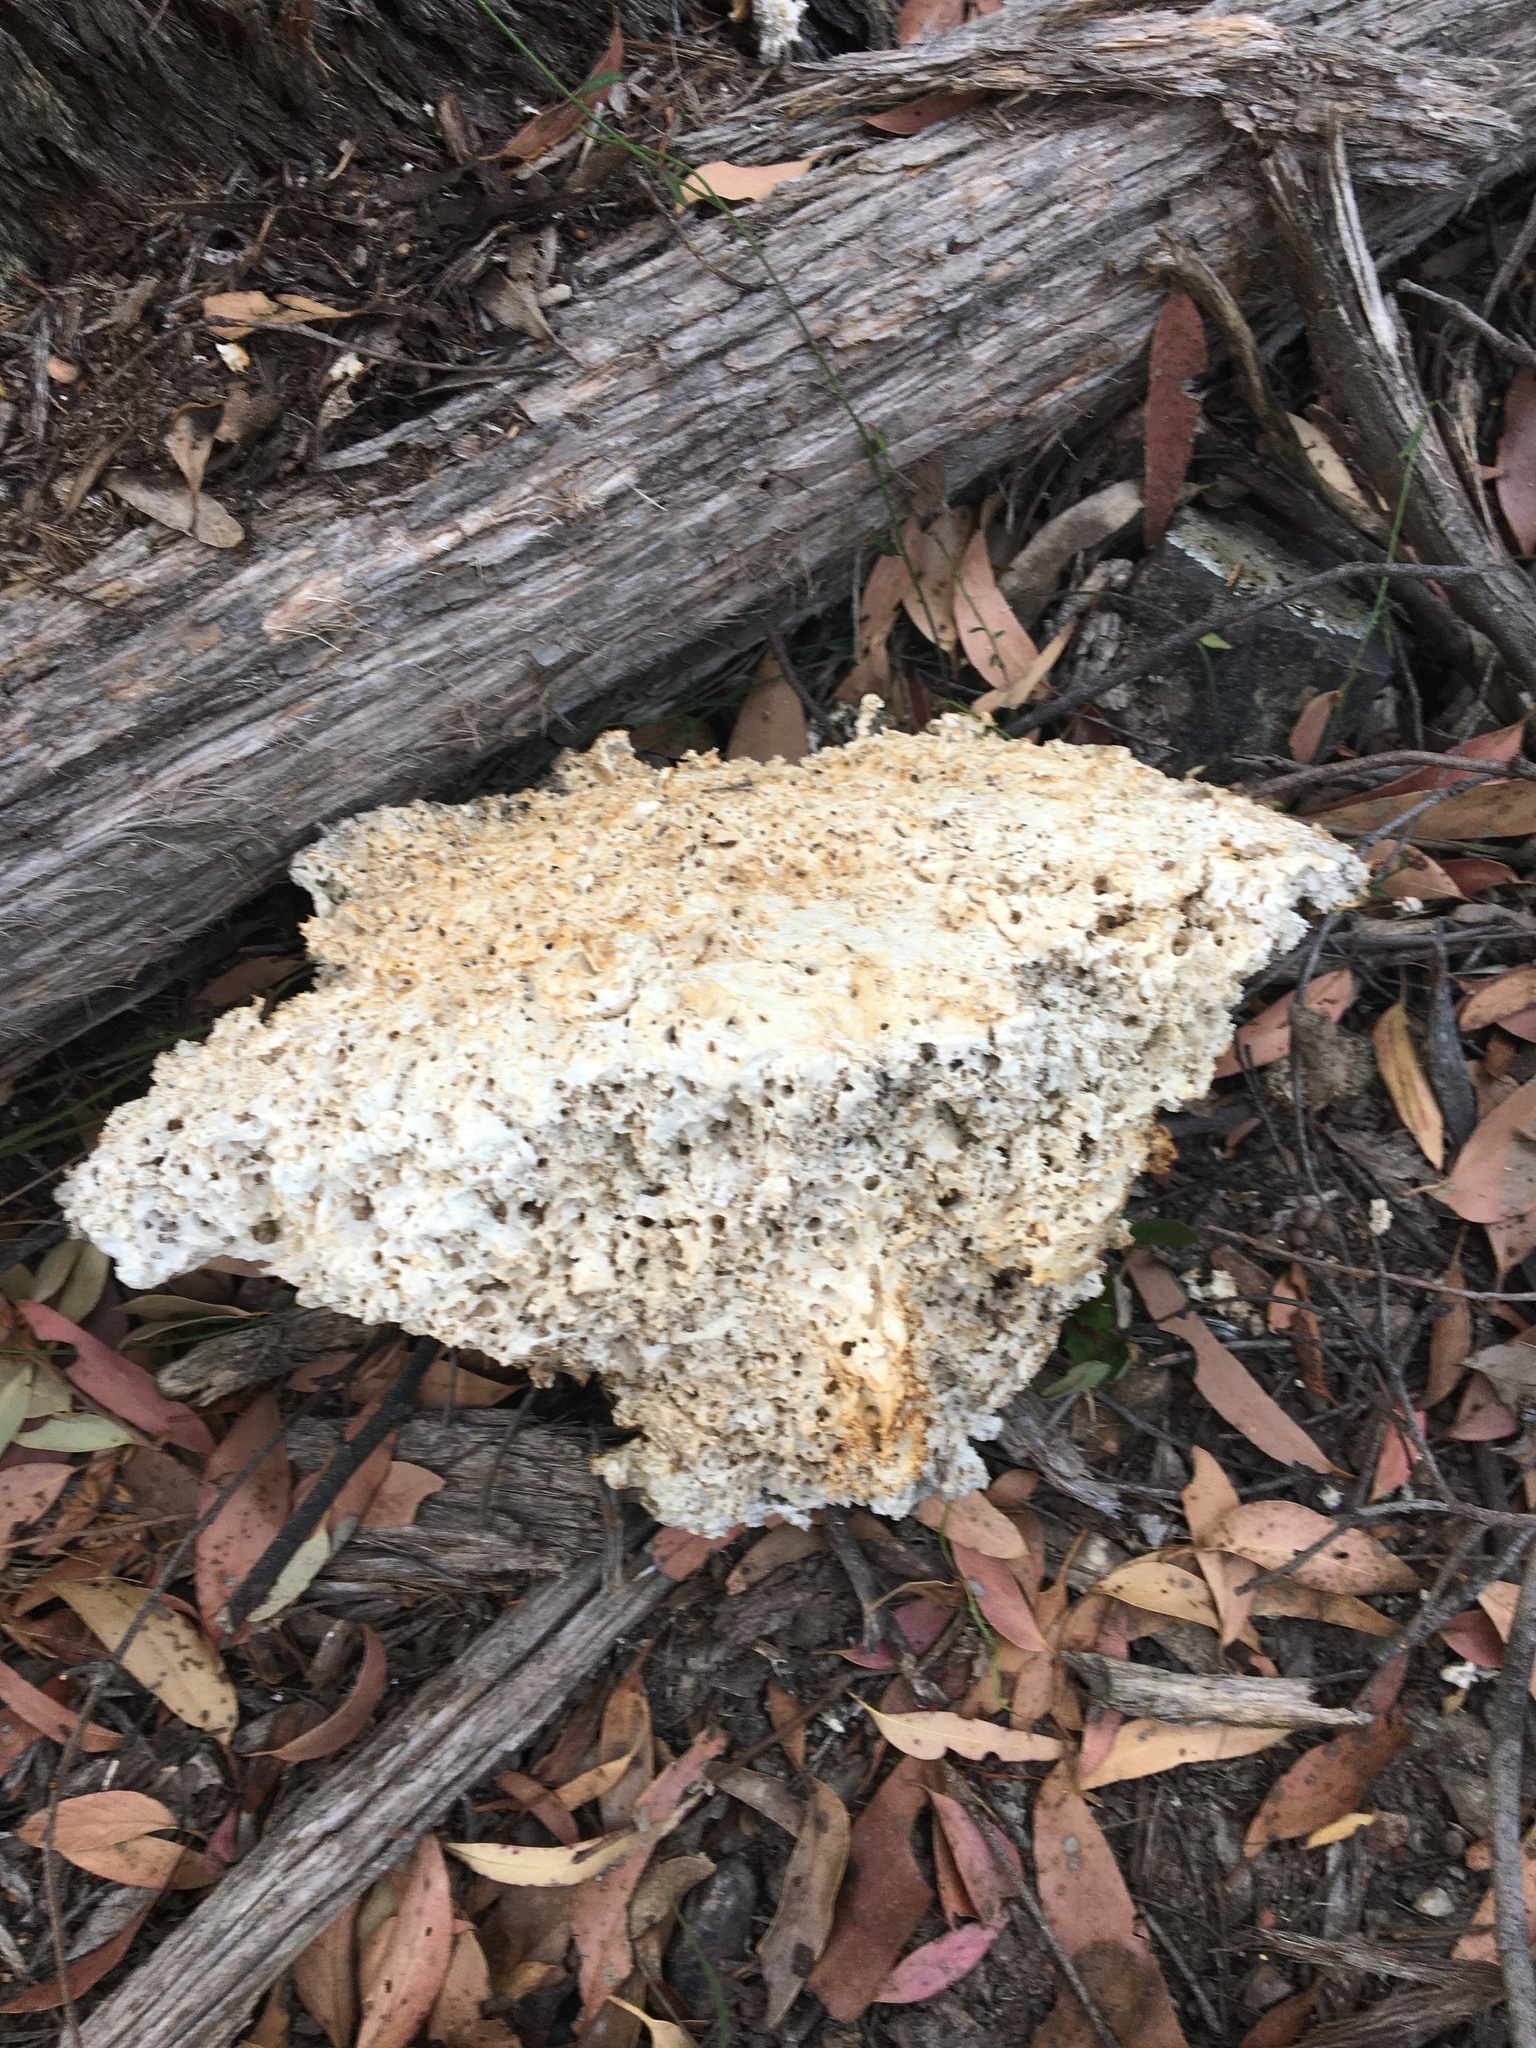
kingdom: Fungi
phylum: Basidiomycota
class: Agaricomycetes
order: Polyporales
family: Laetiporaceae
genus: Laetiporus
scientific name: Laetiporus portentosus
